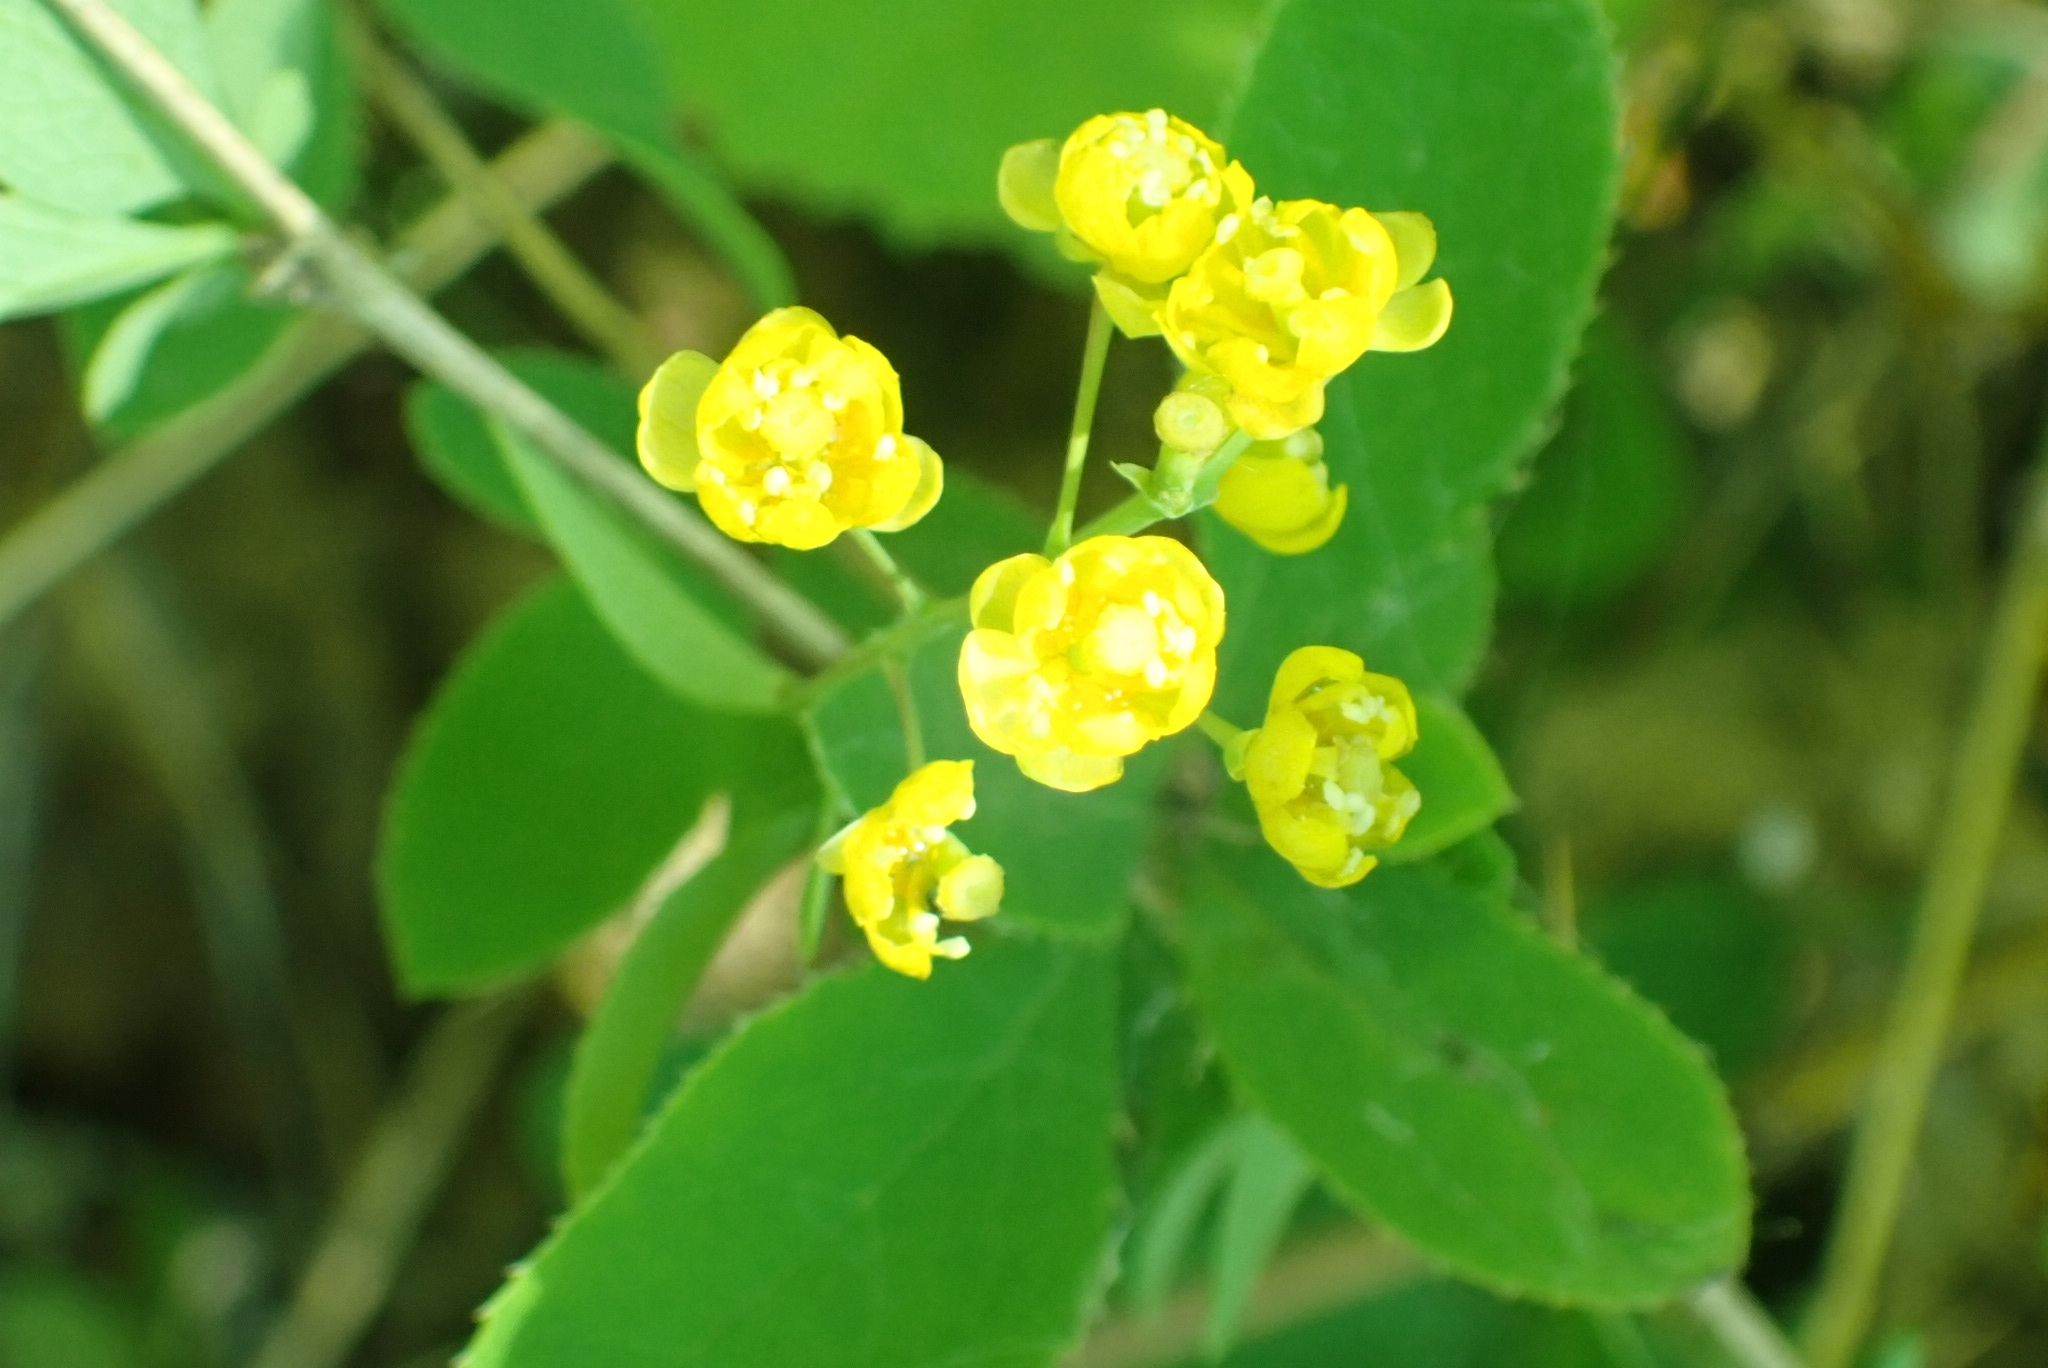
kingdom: Plantae
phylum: Tracheophyta
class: Magnoliopsida
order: Ranunculales
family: Berberidaceae
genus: Berberis
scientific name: Berberis vulgaris
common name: Barberry
